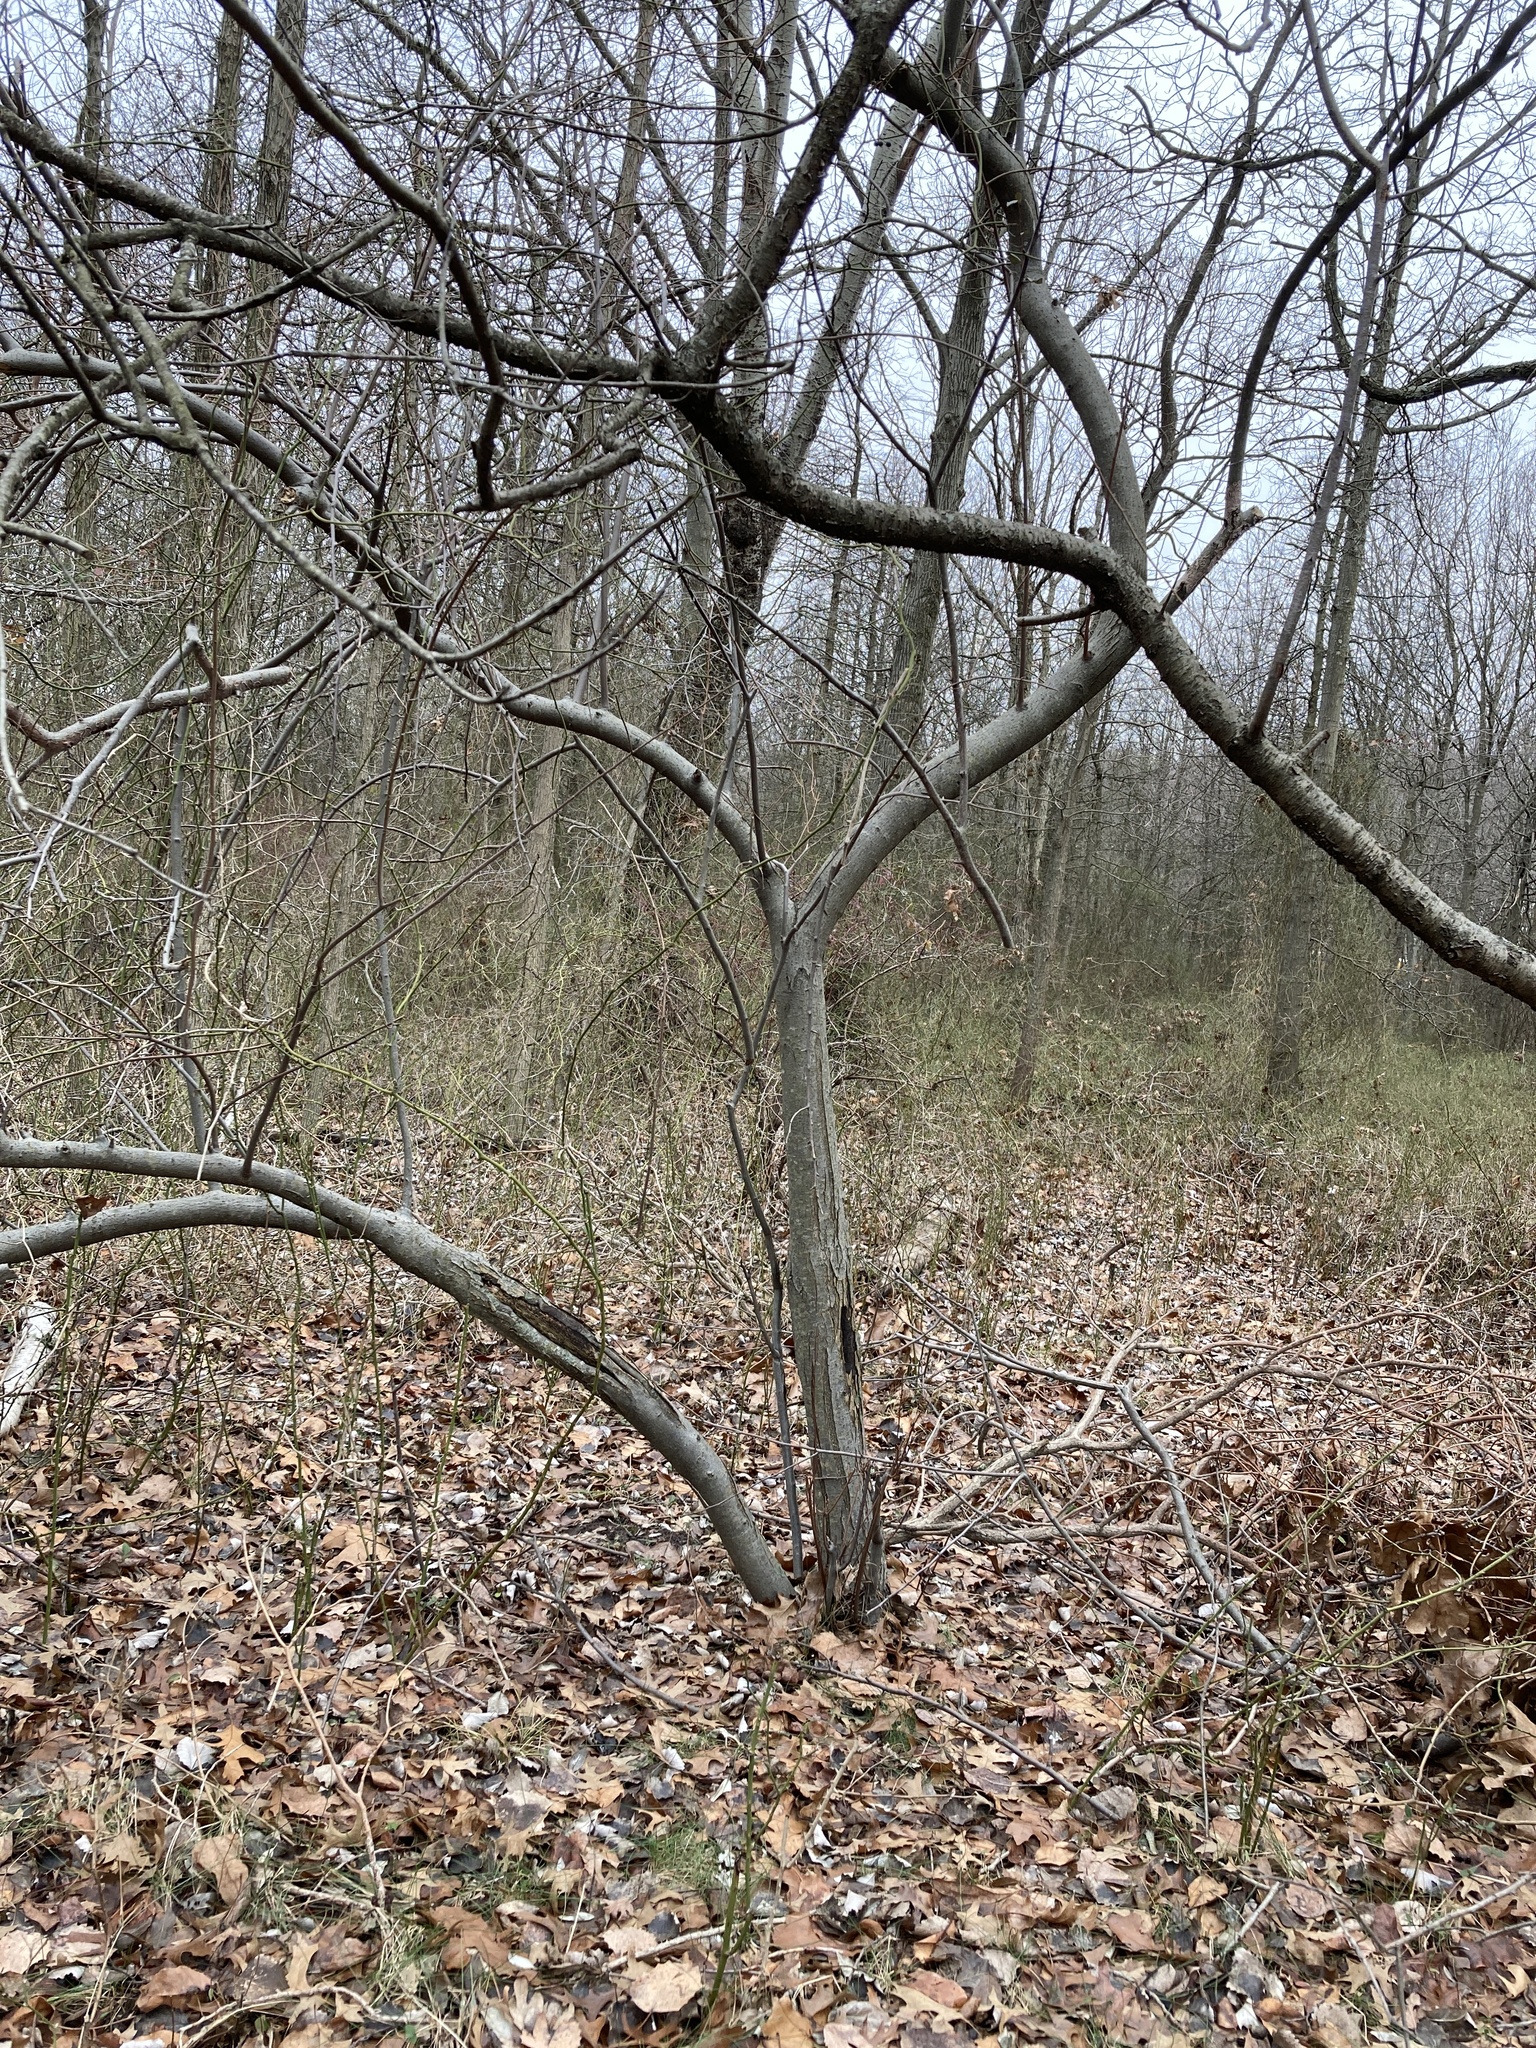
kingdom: Plantae
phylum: Tracheophyta
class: Magnoliopsida
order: Rosales
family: Elaeagnaceae
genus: Elaeagnus
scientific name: Elaeagnus umbellata
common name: Autumn olive
